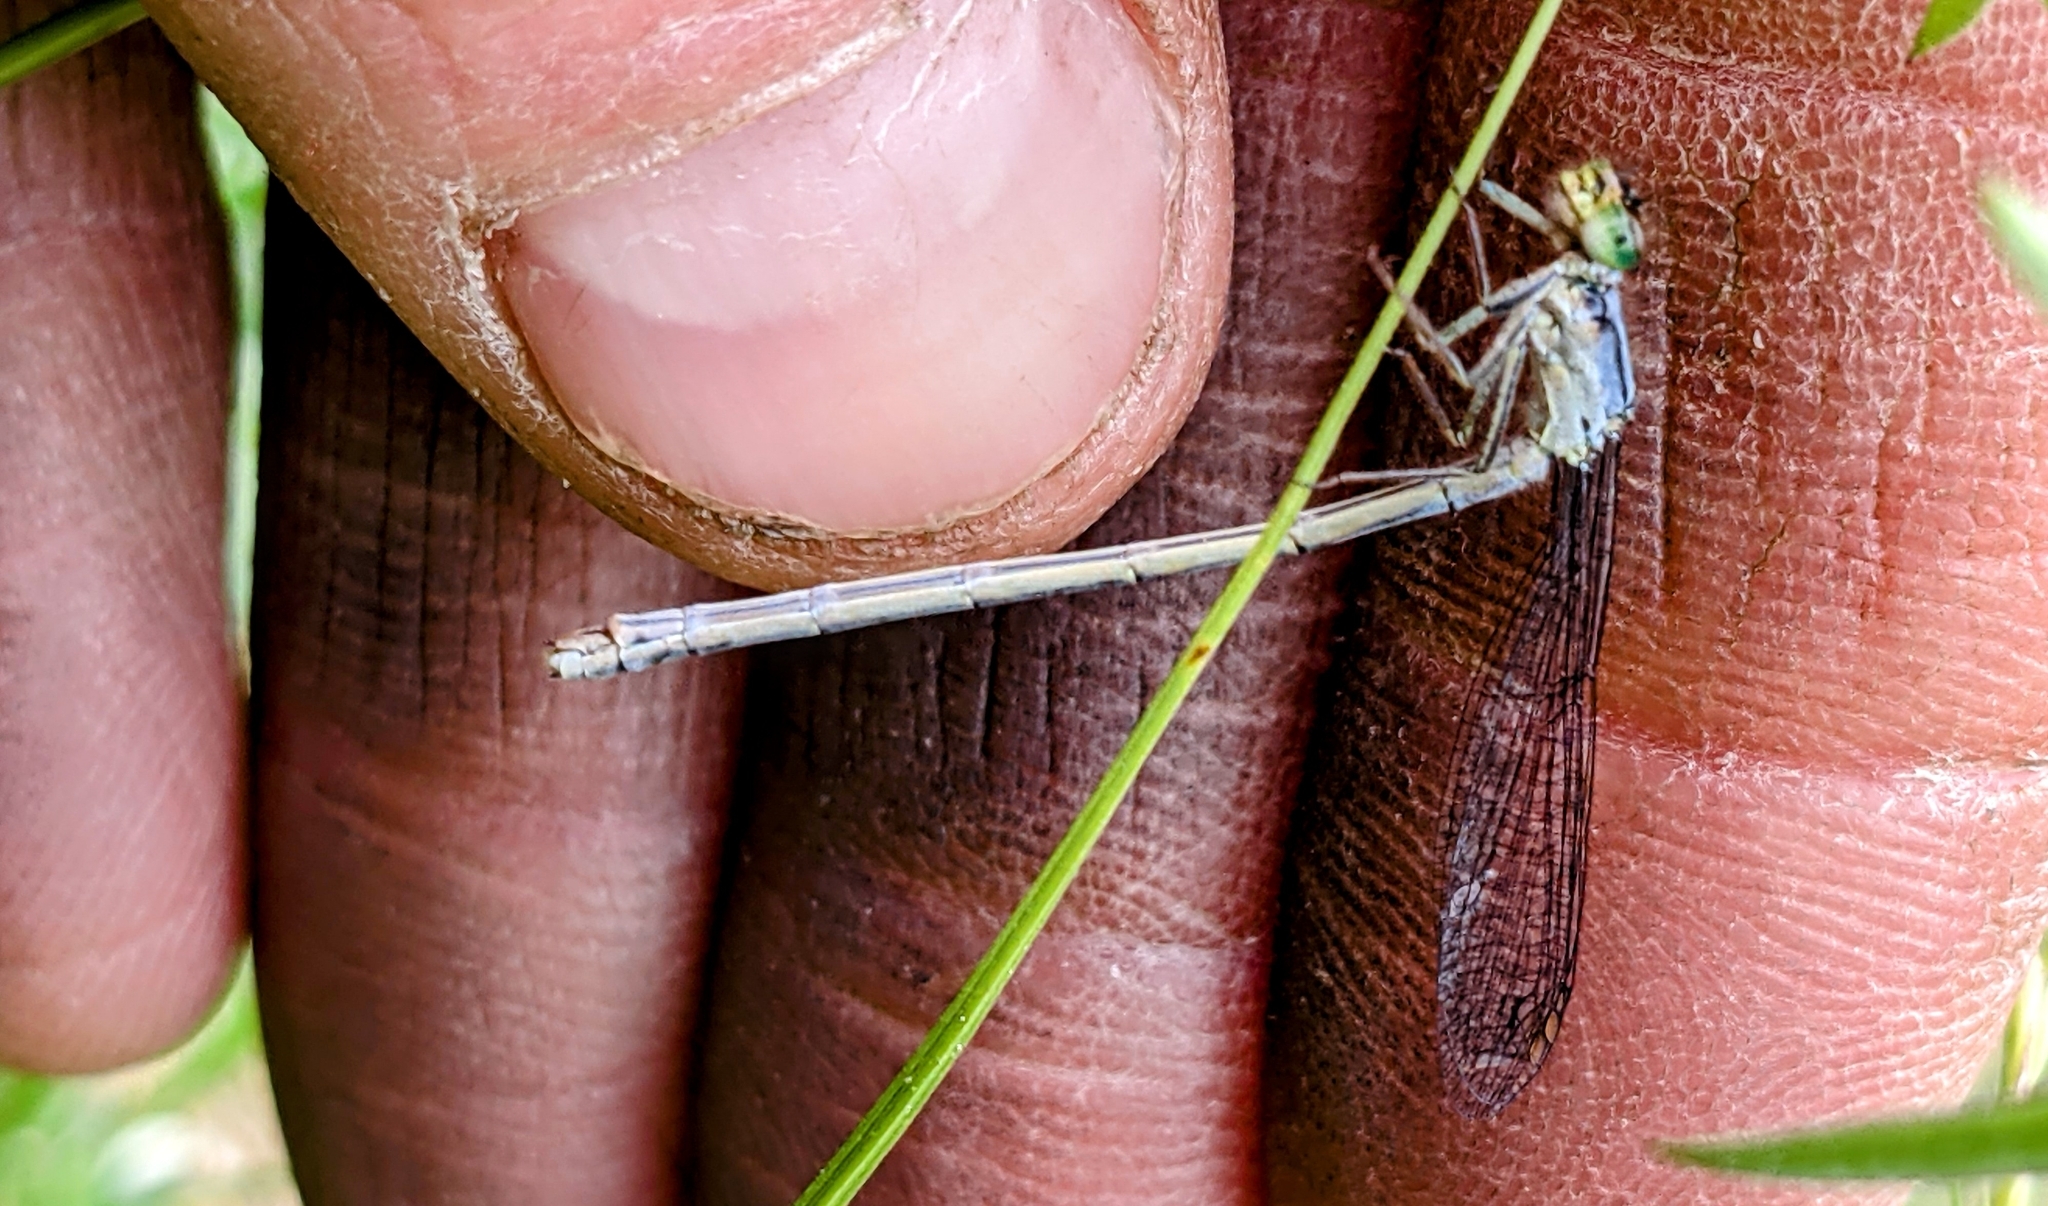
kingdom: Animalia
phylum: Arthropoda
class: Insecta
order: Odonata
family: Coenagrionidae
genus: Ischnura
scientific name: Ischnura verticalis
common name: Eastern forktail
